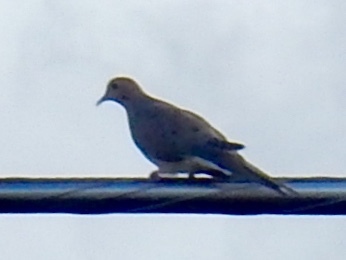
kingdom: Animalia
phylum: Chordata
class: Aves
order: Columbiformes
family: Columbidae
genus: Zenaida
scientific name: Zenaida macroura
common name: Mourning dove
